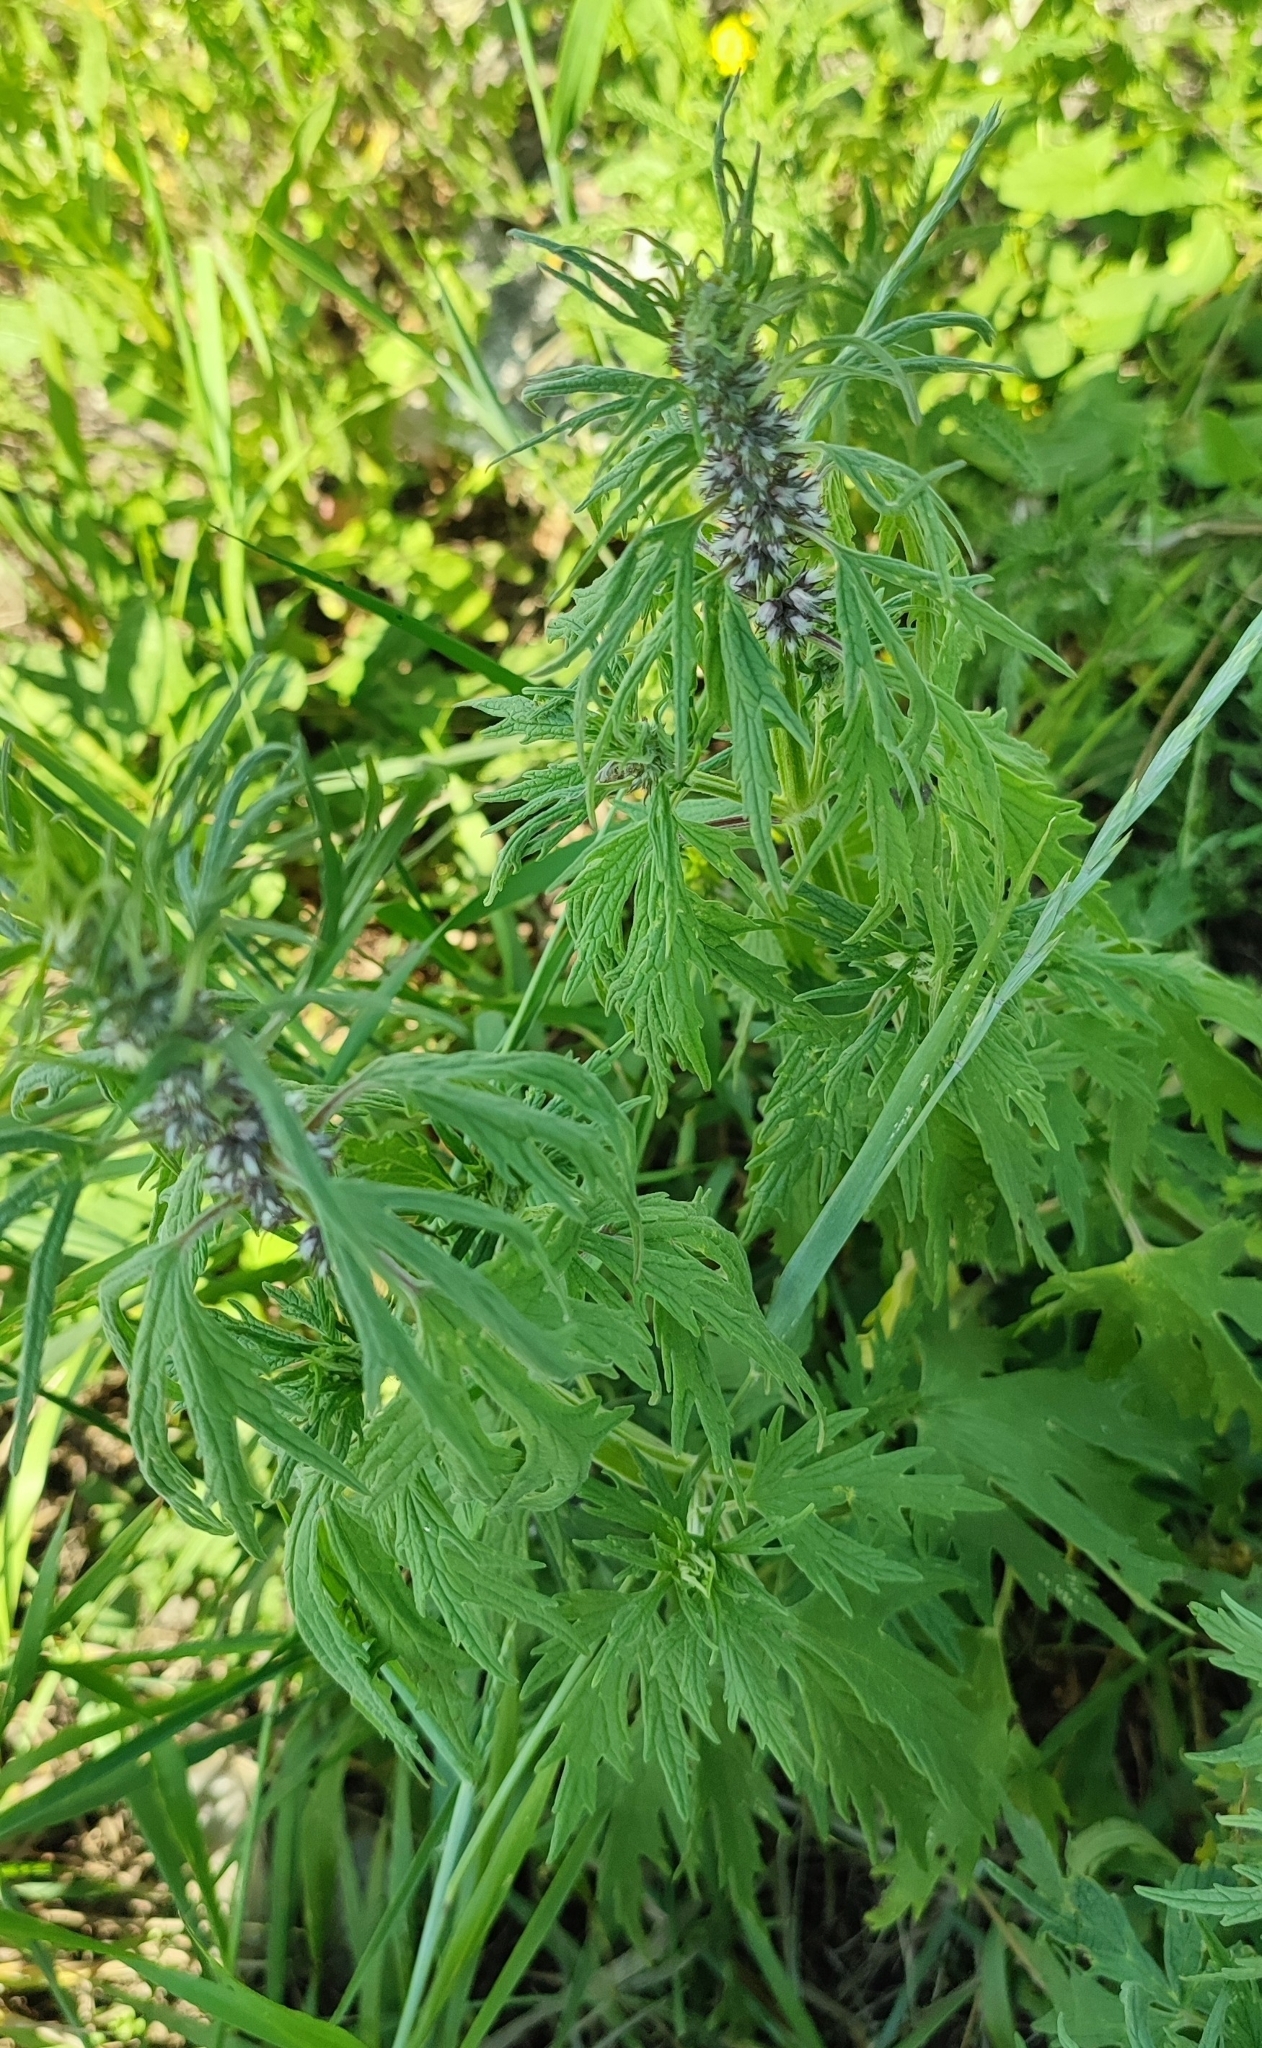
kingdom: Plantae
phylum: Tracheophyta
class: Magnoliopsida
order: Lamiales
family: Lamiaceae
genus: Leonurus
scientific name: Leonurus glaucescens
